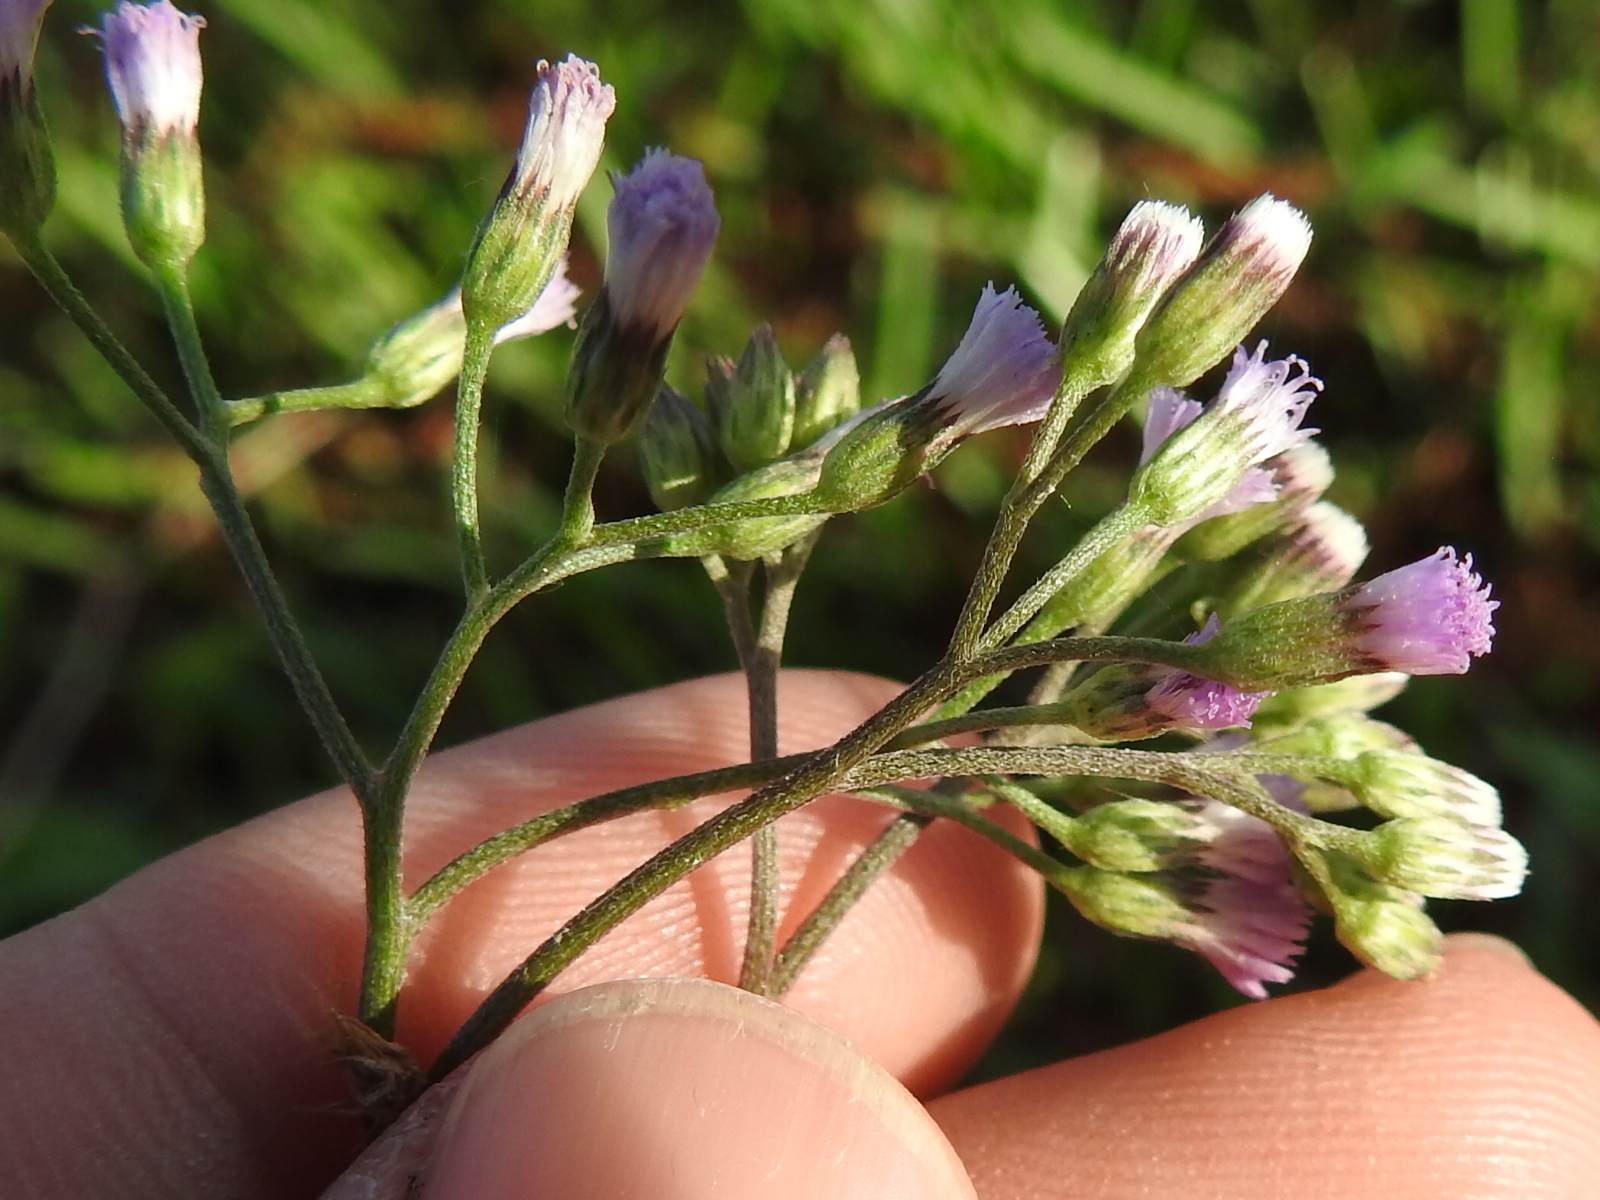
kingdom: Plantae
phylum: Tracheophyta
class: Magnoliopsida
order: Asterales
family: Asteraceae
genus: Cyanthillium
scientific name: Cyanthillium cinereum
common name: Little ironweed
